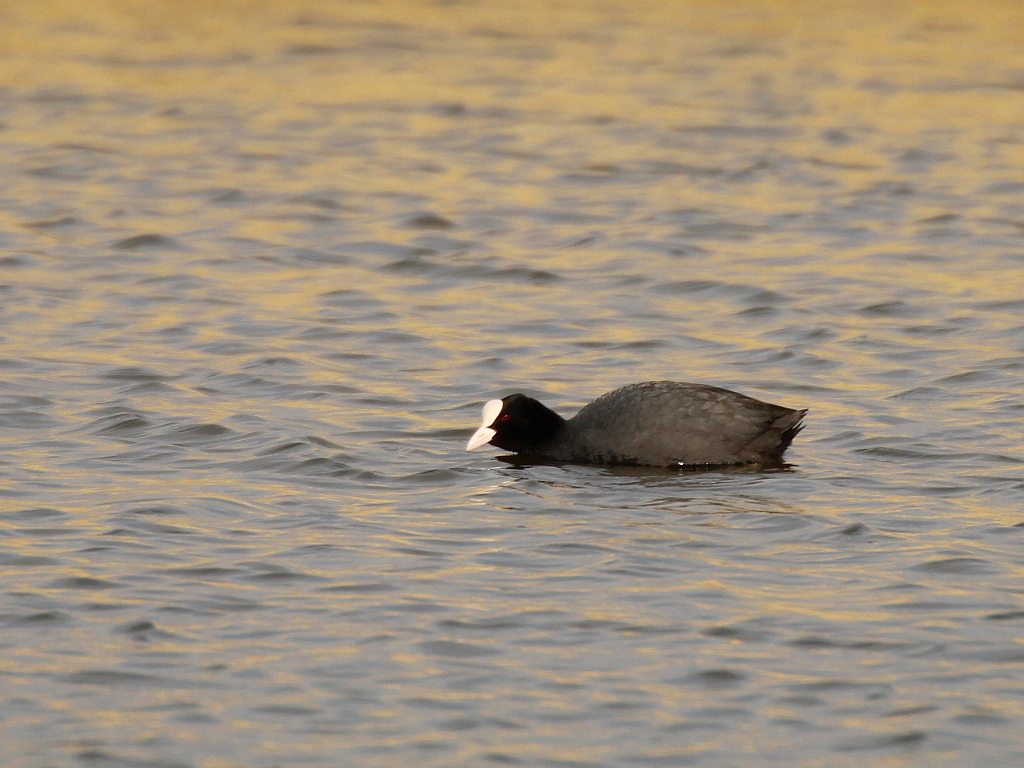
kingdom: Animalia
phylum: Chordata
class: Aves
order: Gruiformes
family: Rallidae
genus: Fulica
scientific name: Fulica atra
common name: Eurasian coot
